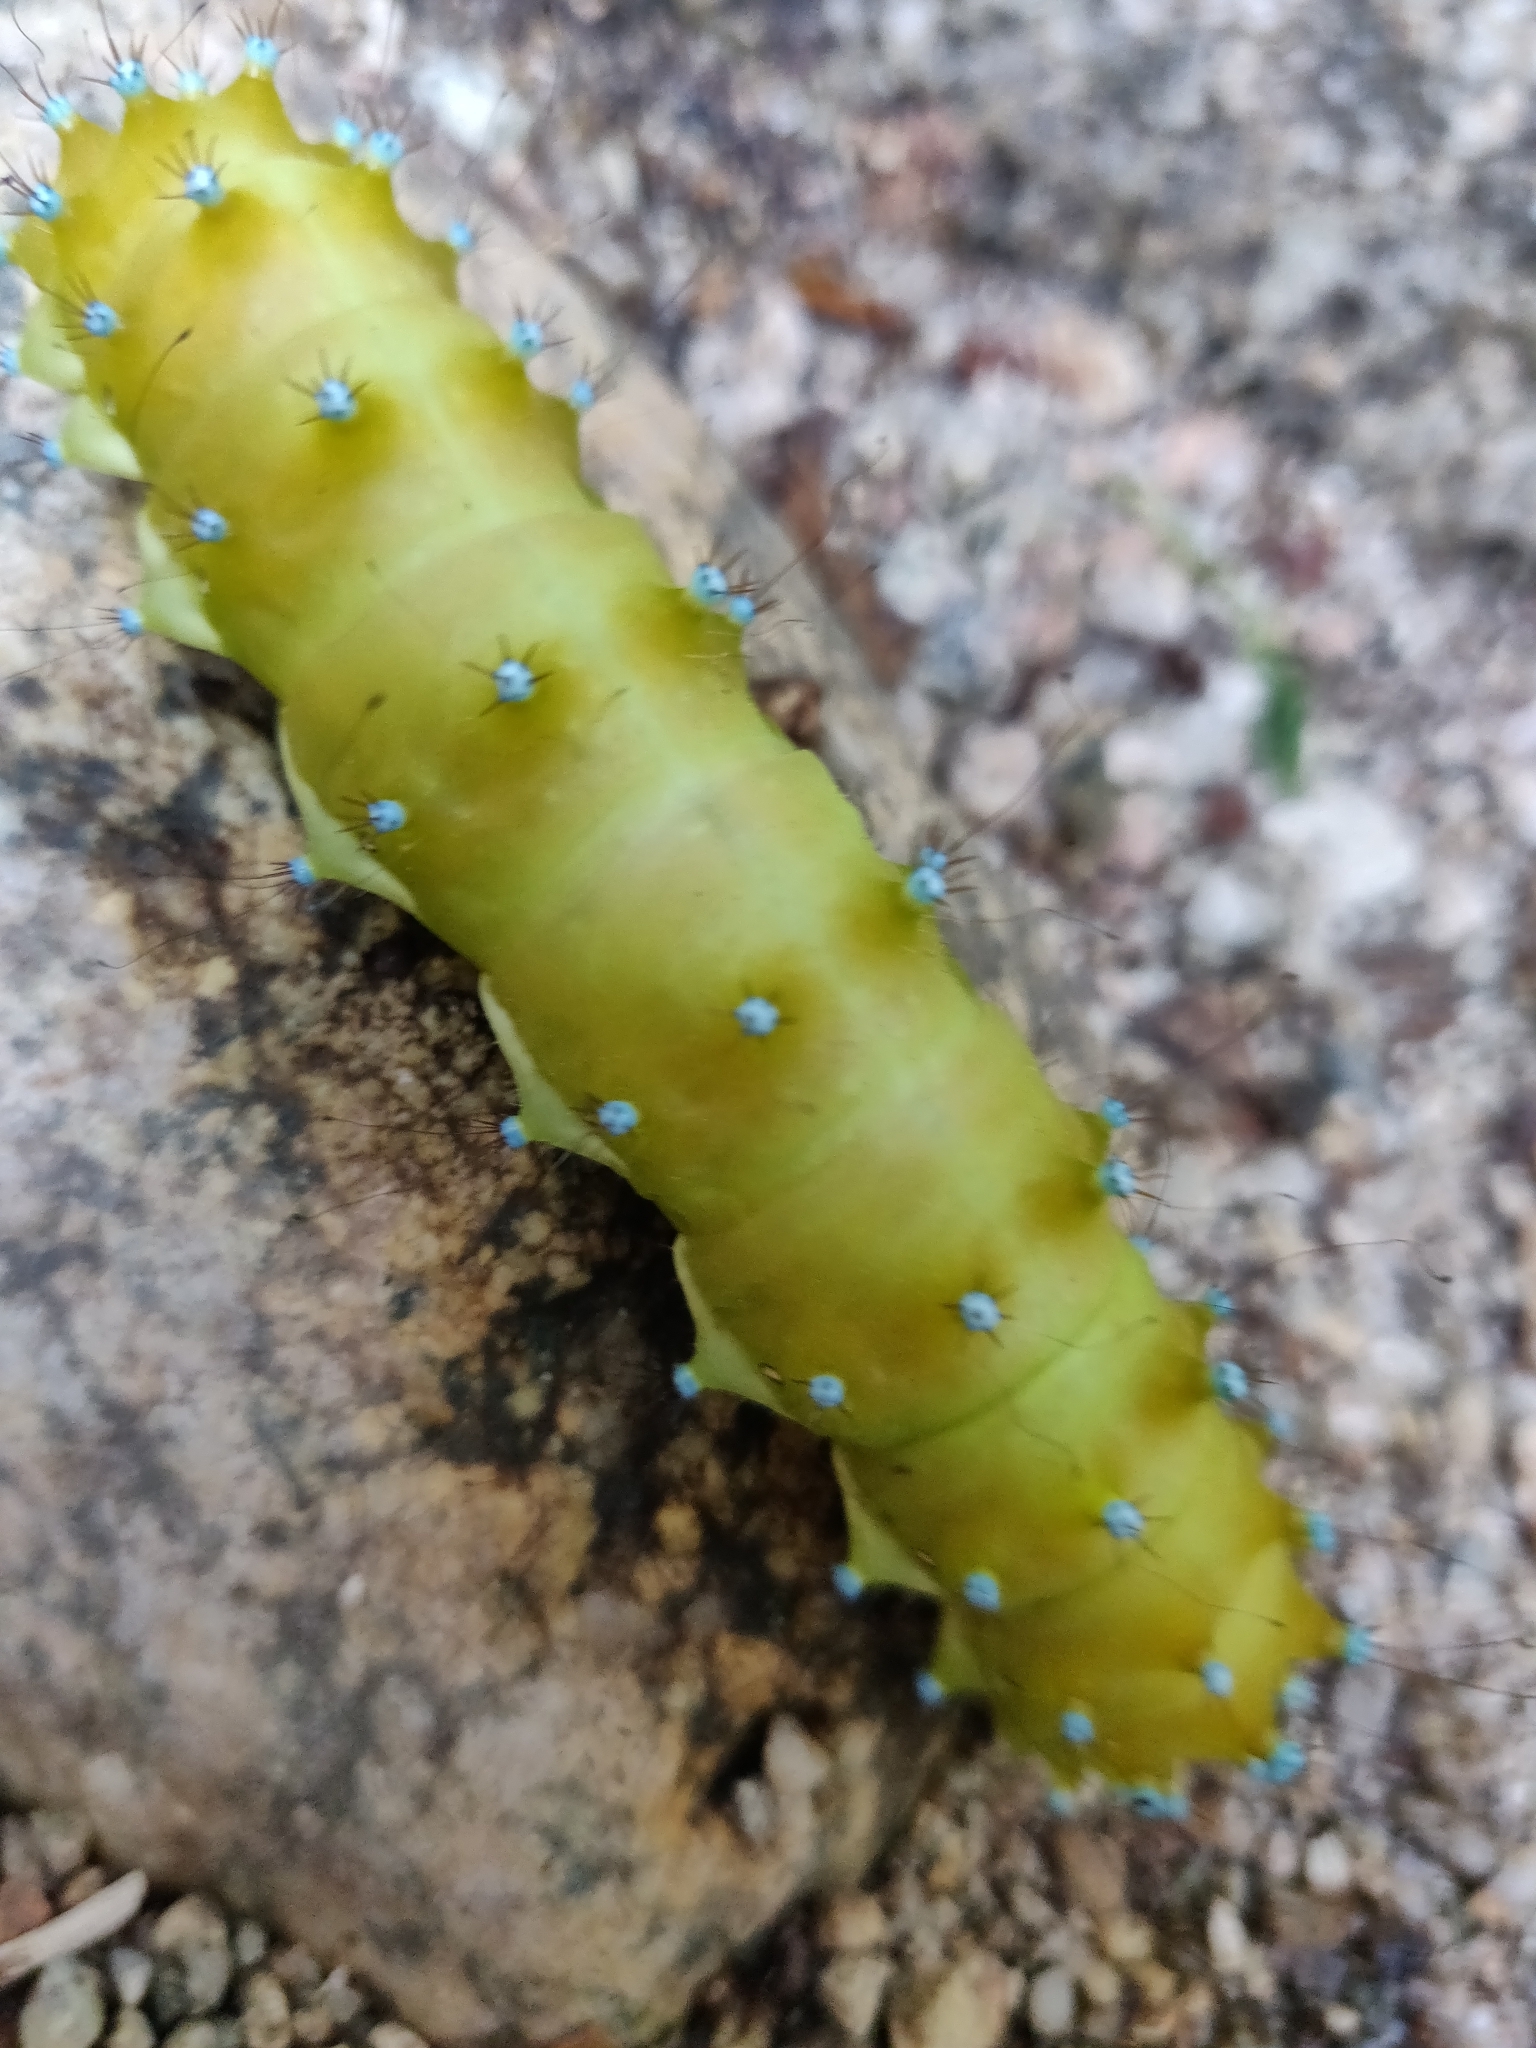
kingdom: Animalia
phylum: Arthropoda
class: Insecta
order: Lepidoptera
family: Saturniidae
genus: Saturnia
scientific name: Saturnia pyri
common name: Great peacock moth
